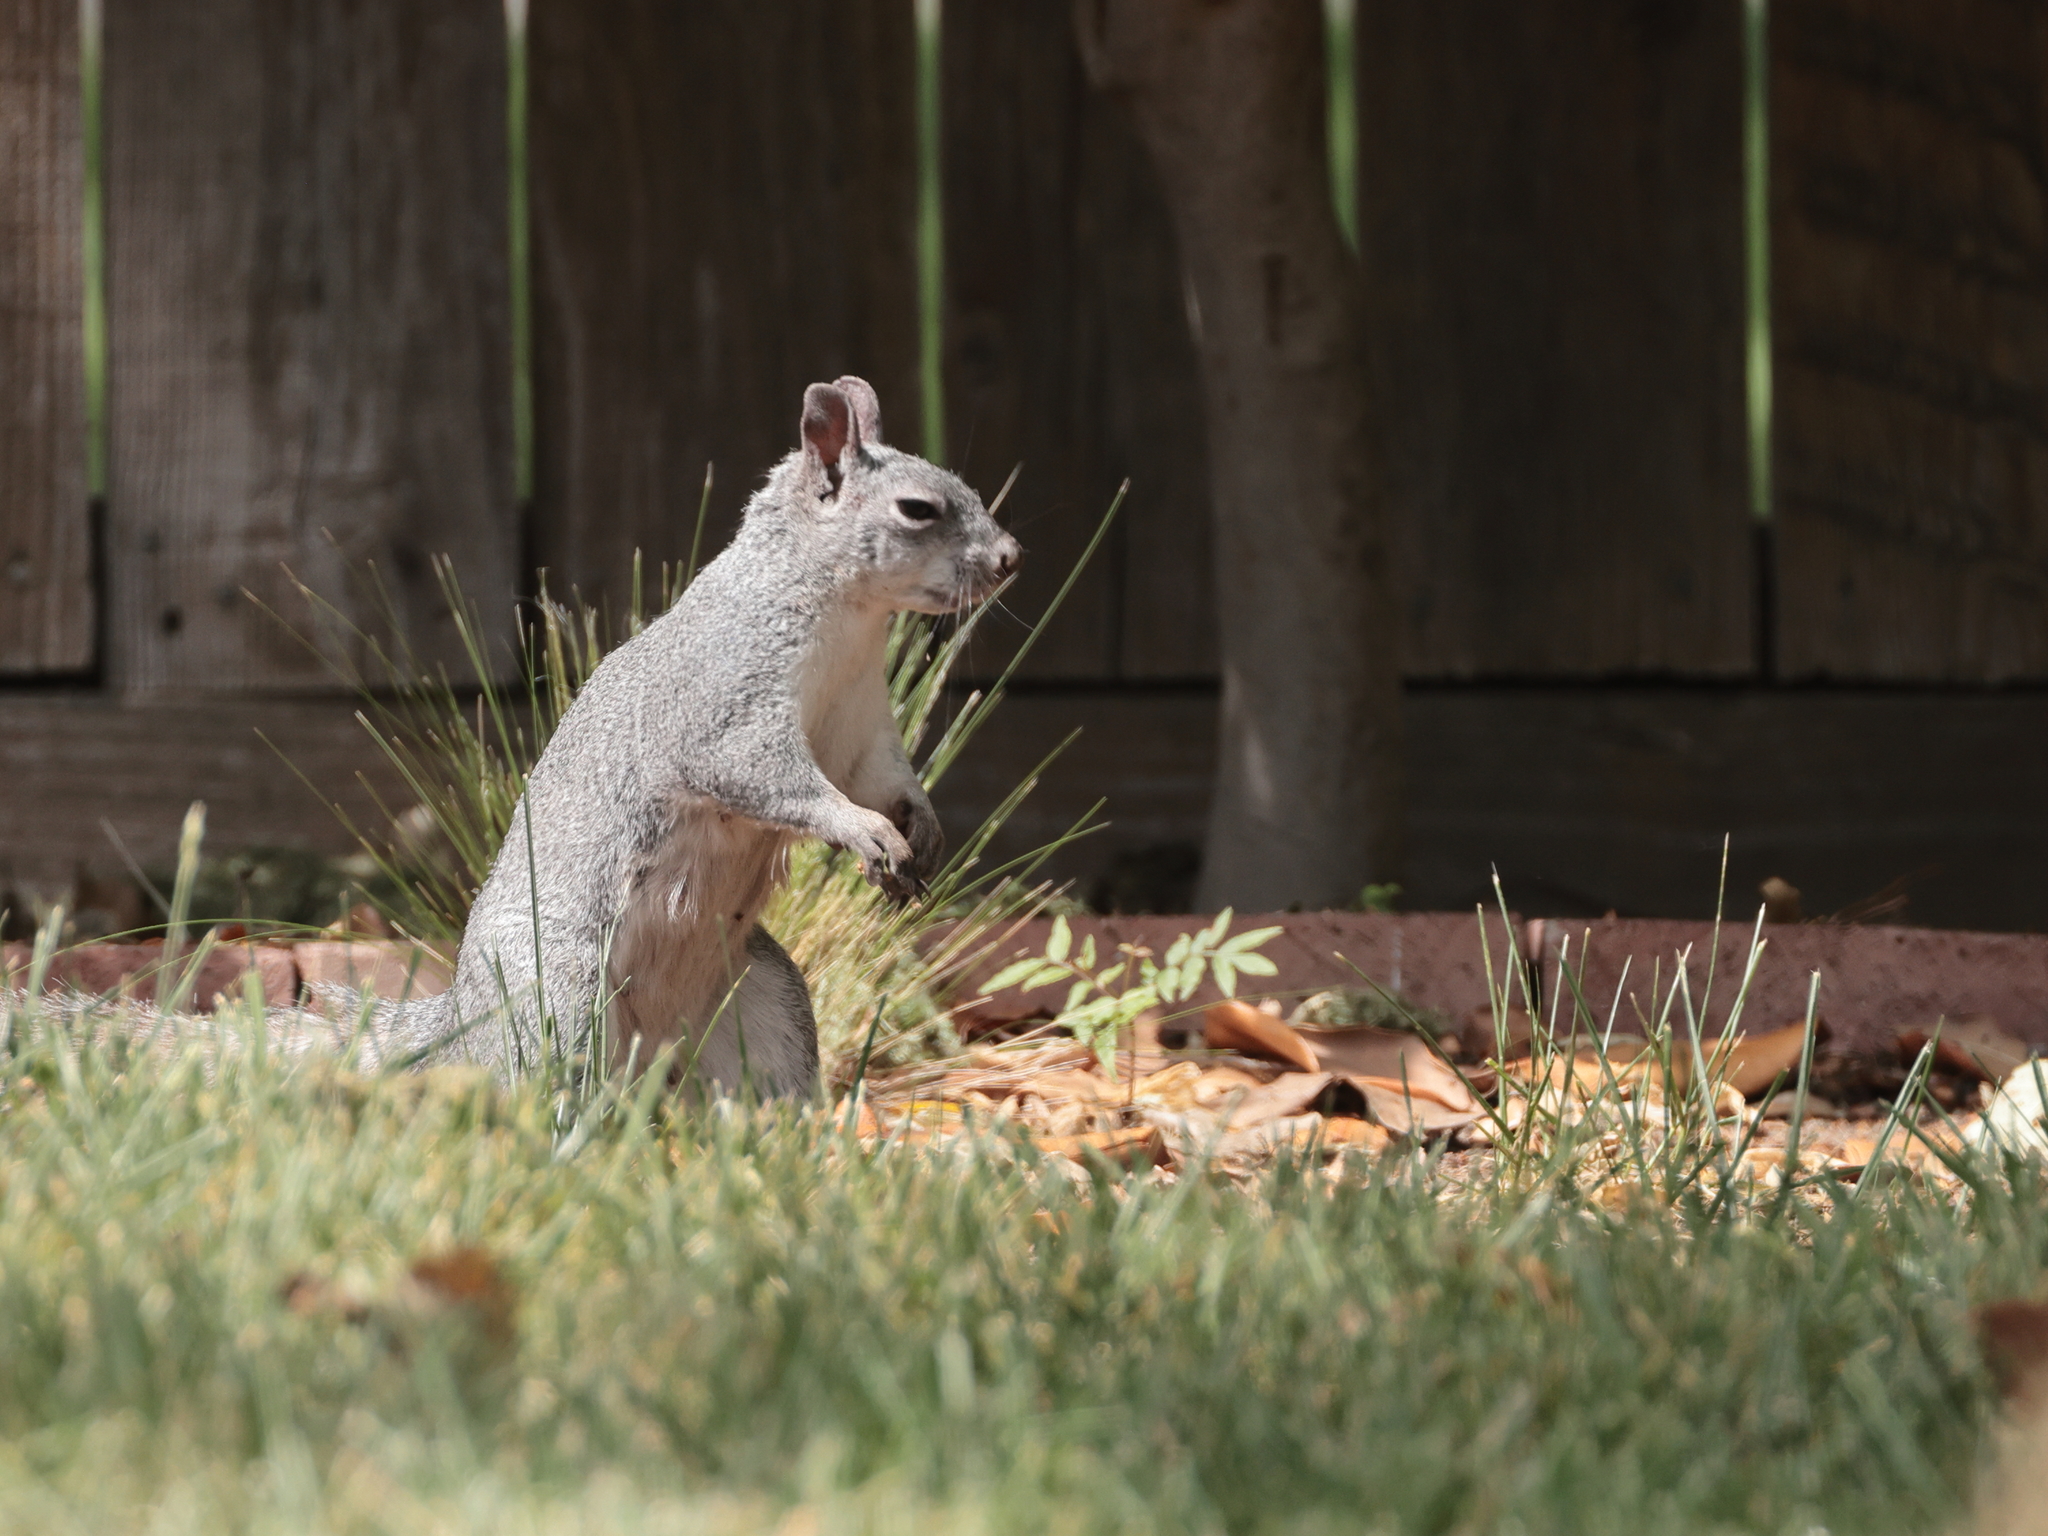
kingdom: Animalia
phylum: Chordata
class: Mammalia
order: Rodentia
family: Sciuridae
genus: Sciurus
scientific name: Sciurus griseus
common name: Western gray squirrel
